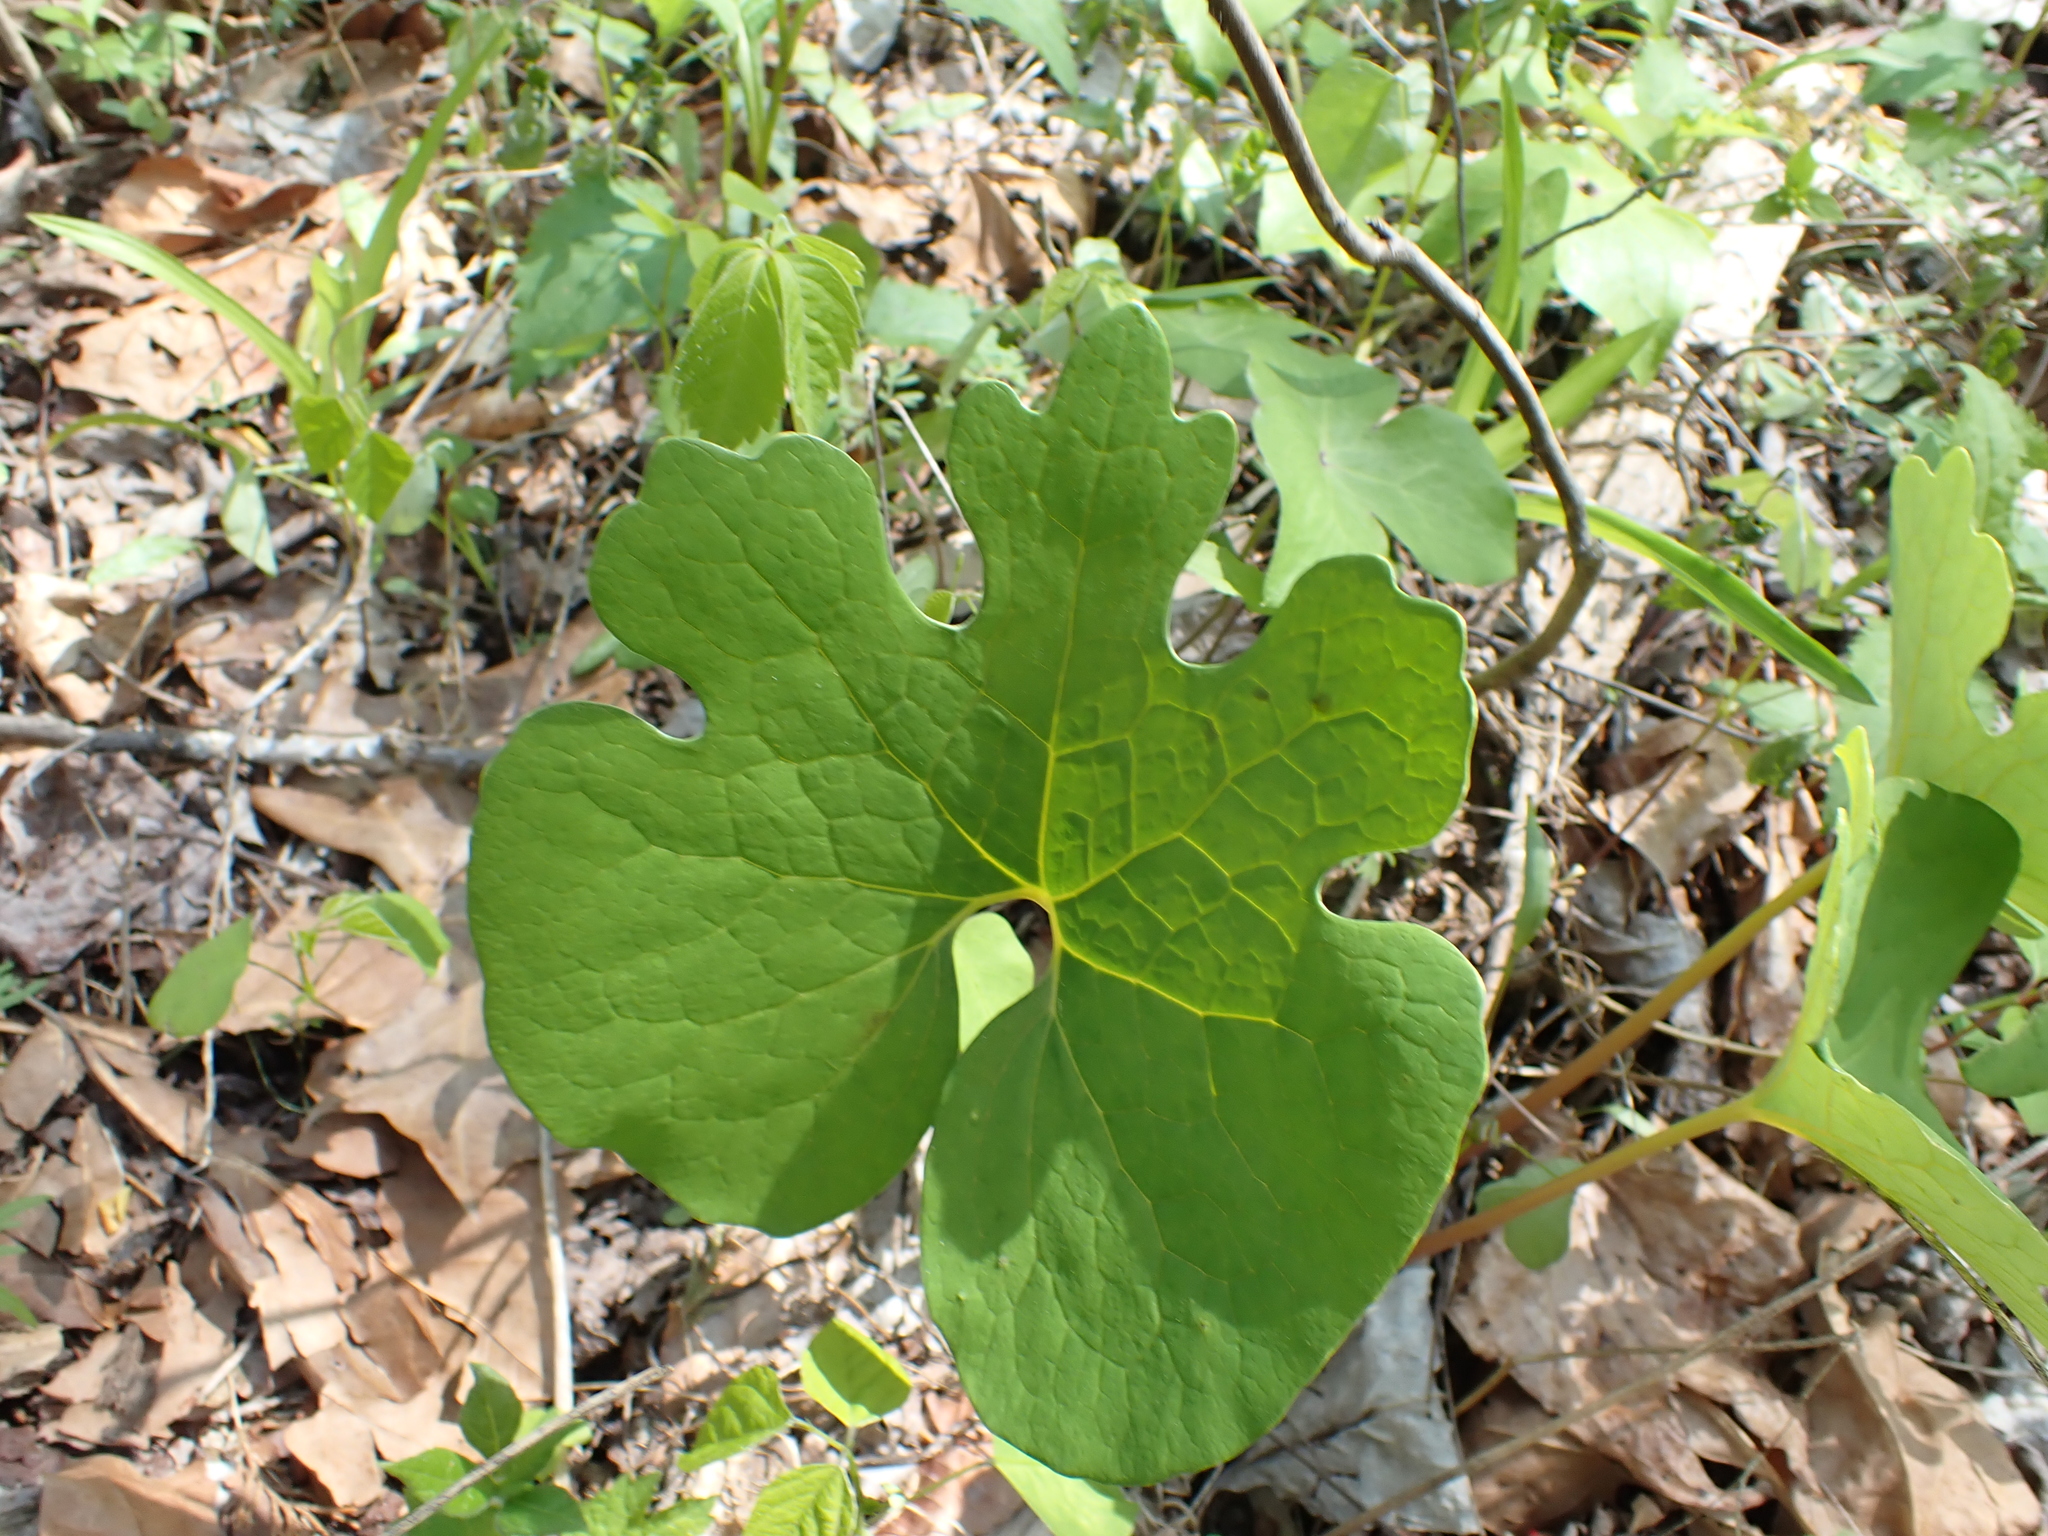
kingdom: Plantae
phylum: Tracheophyta
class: Magnoliopsida
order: Ranunculales
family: Papaveraceae
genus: Sanguinaria
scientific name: Sanguinaria canadensis
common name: Bloodroot
